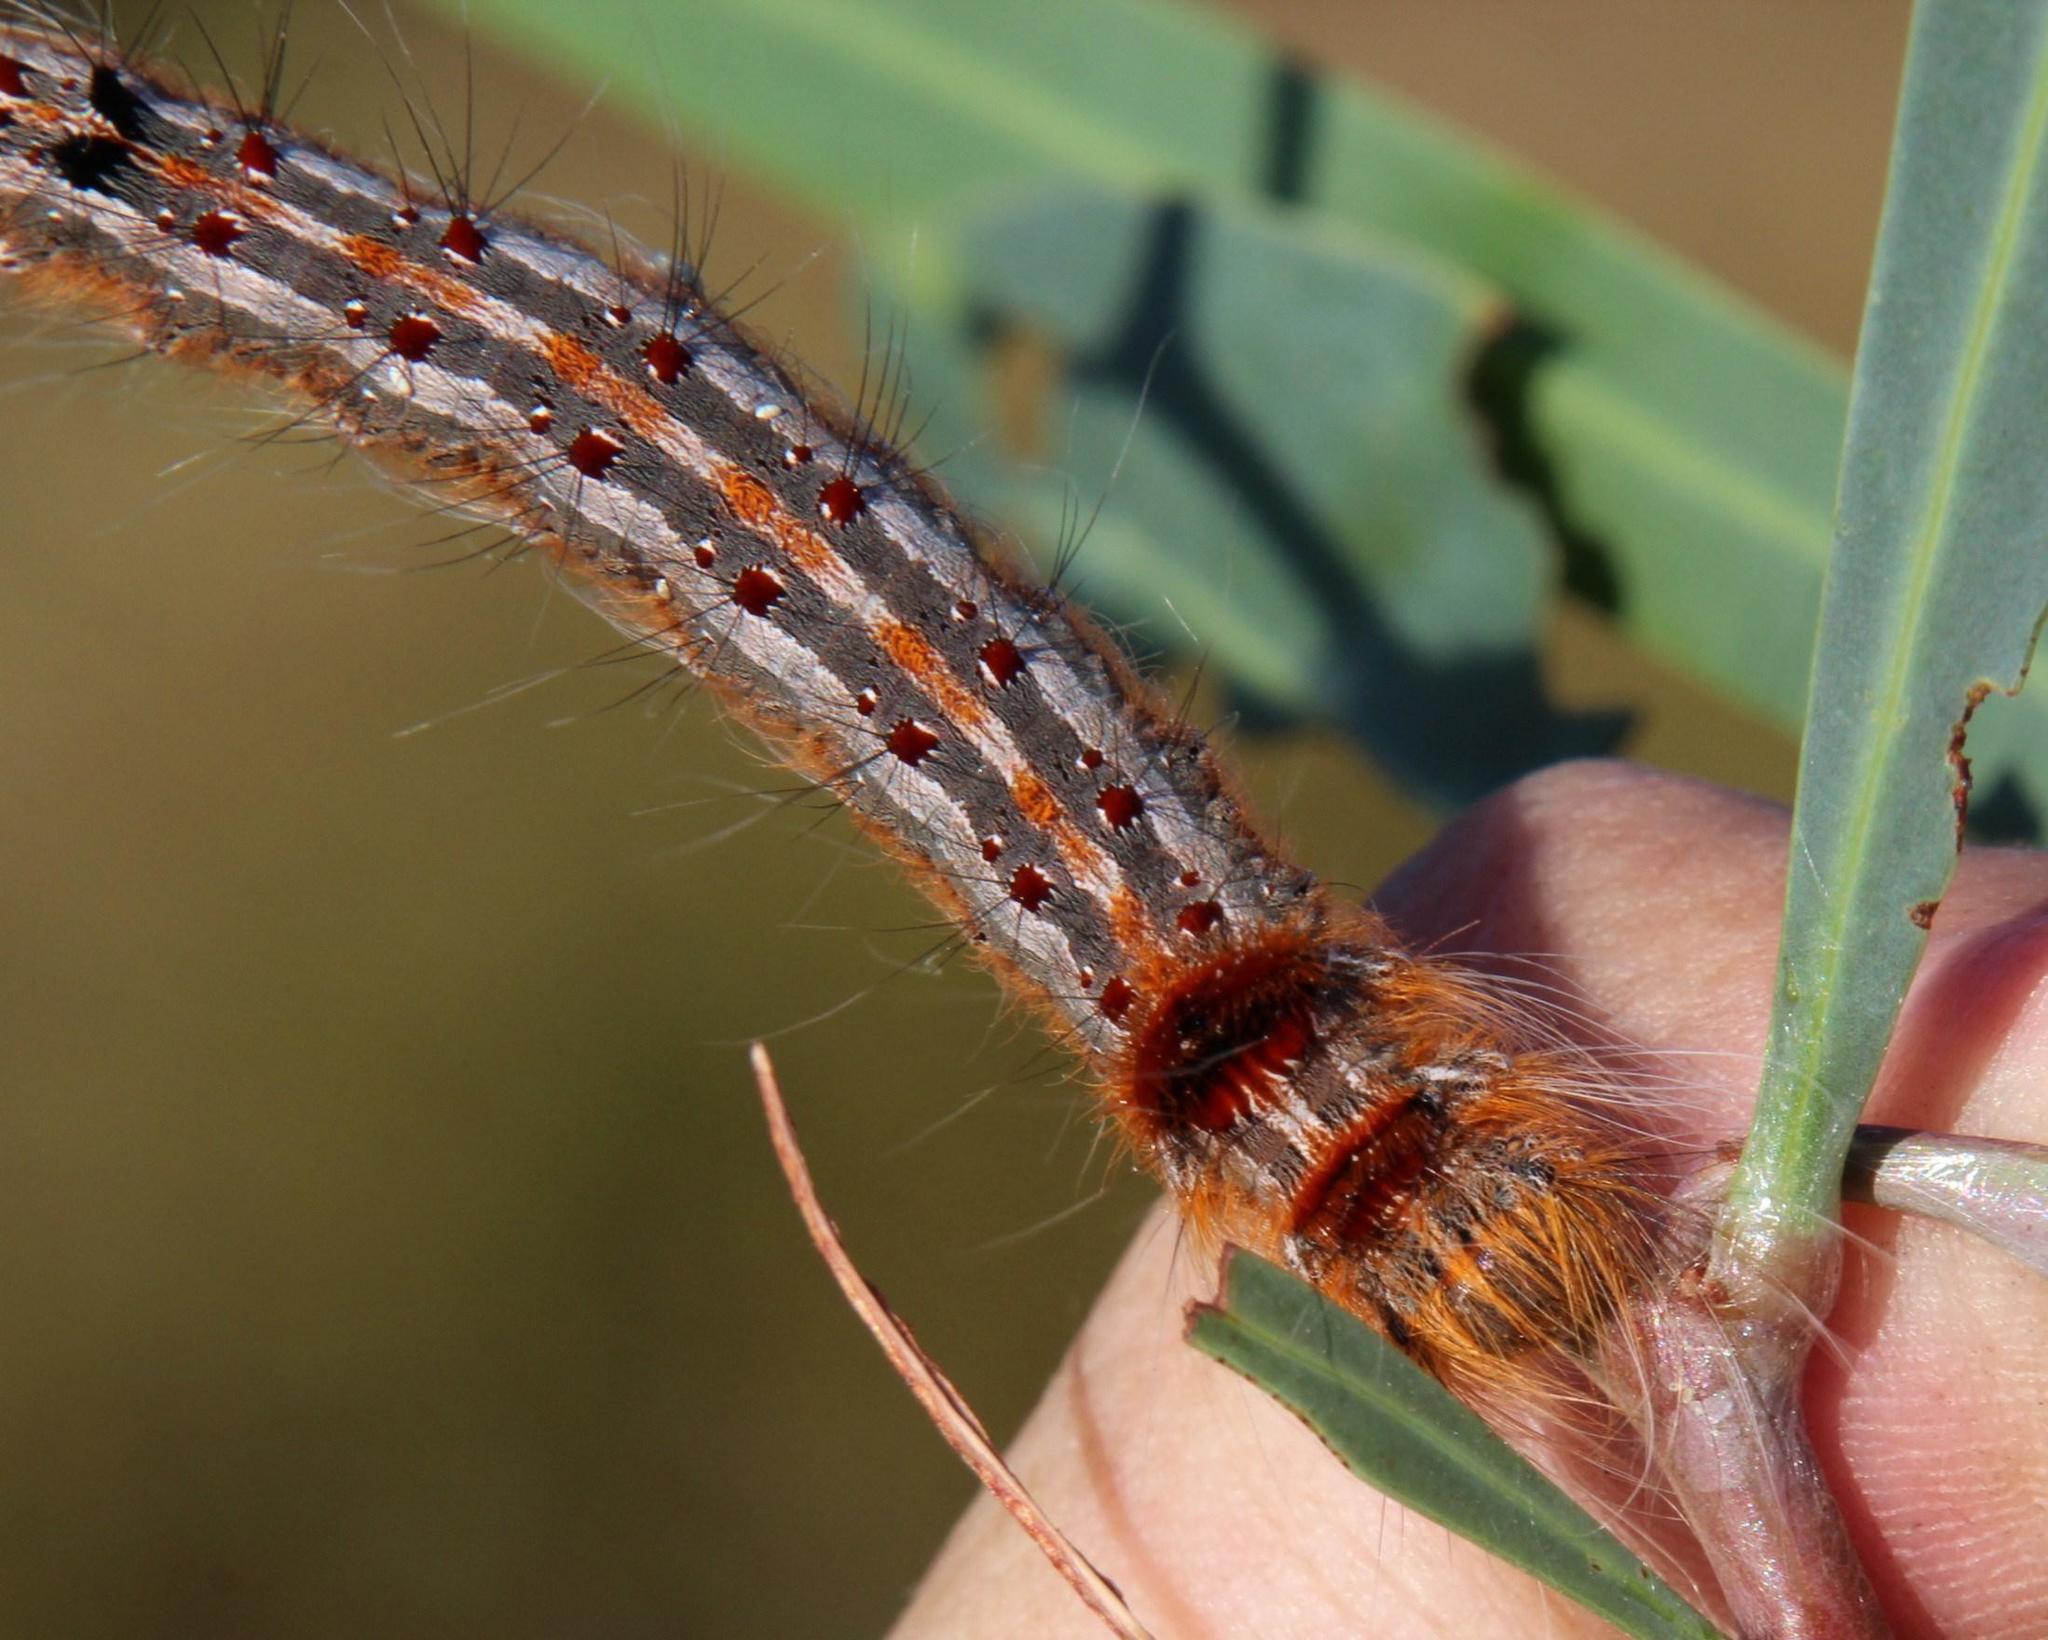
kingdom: Animalia
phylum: Arthropoda
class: Insecta
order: Lepidoptera
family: Lasiocampidae
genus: Streblote
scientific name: Streblote cristata
